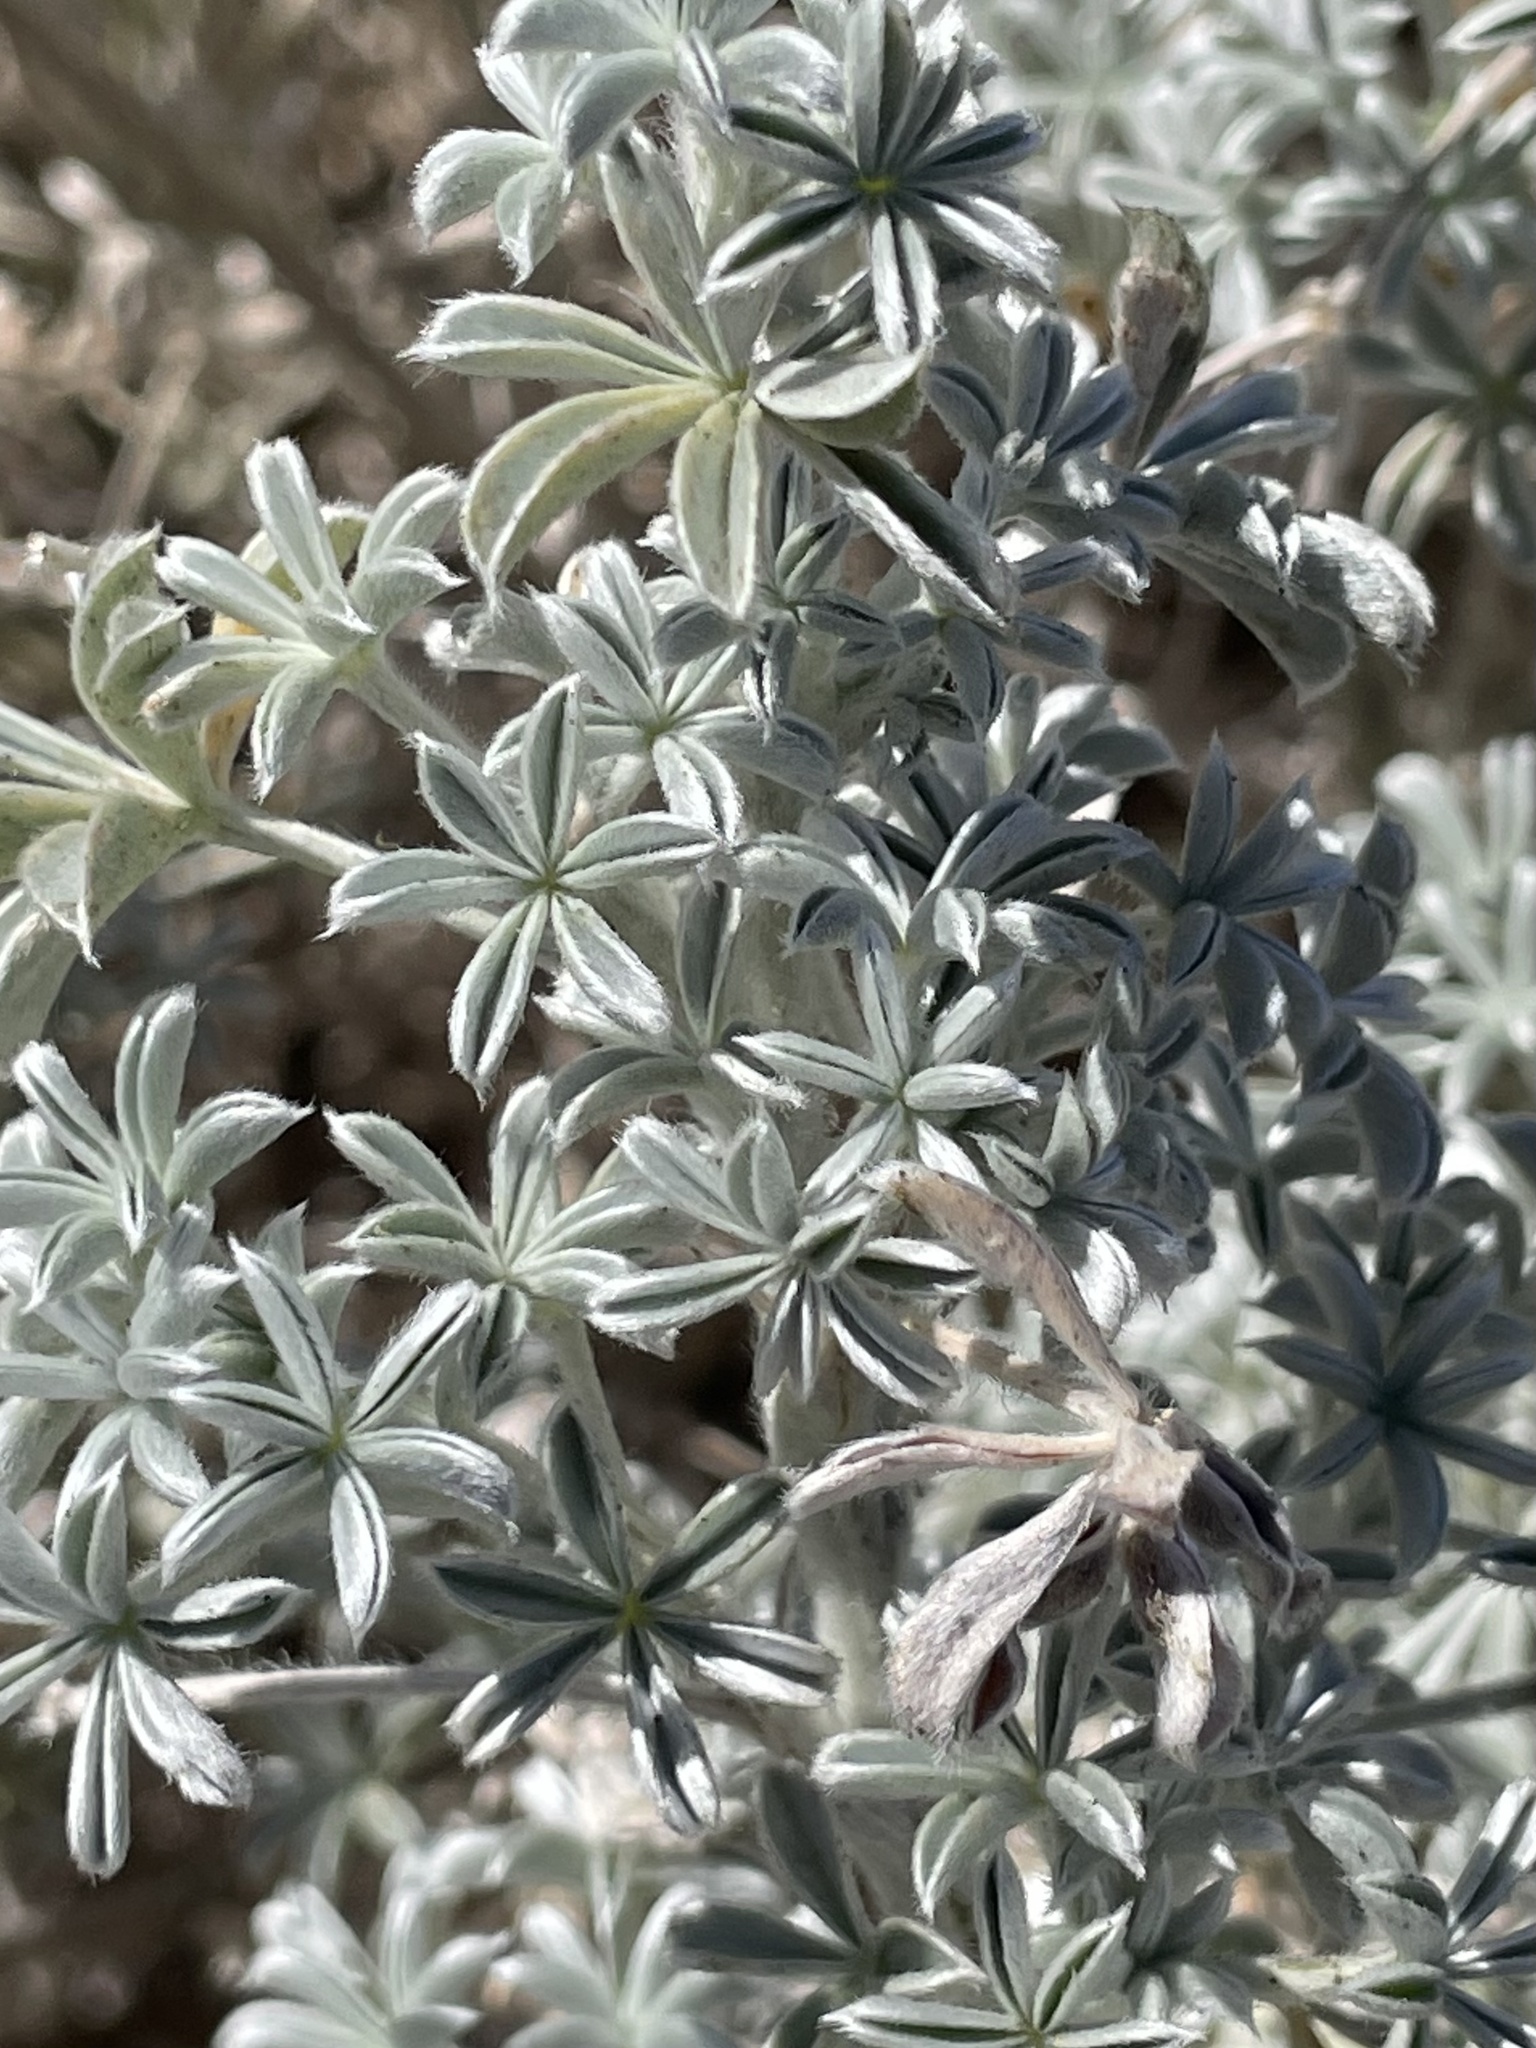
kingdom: Plantae
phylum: Tracheophyta
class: Magnoliopsida
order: Fabales
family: Fabaceae
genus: Lupinus
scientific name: Lupinus albifrons
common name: Foothill lupine
